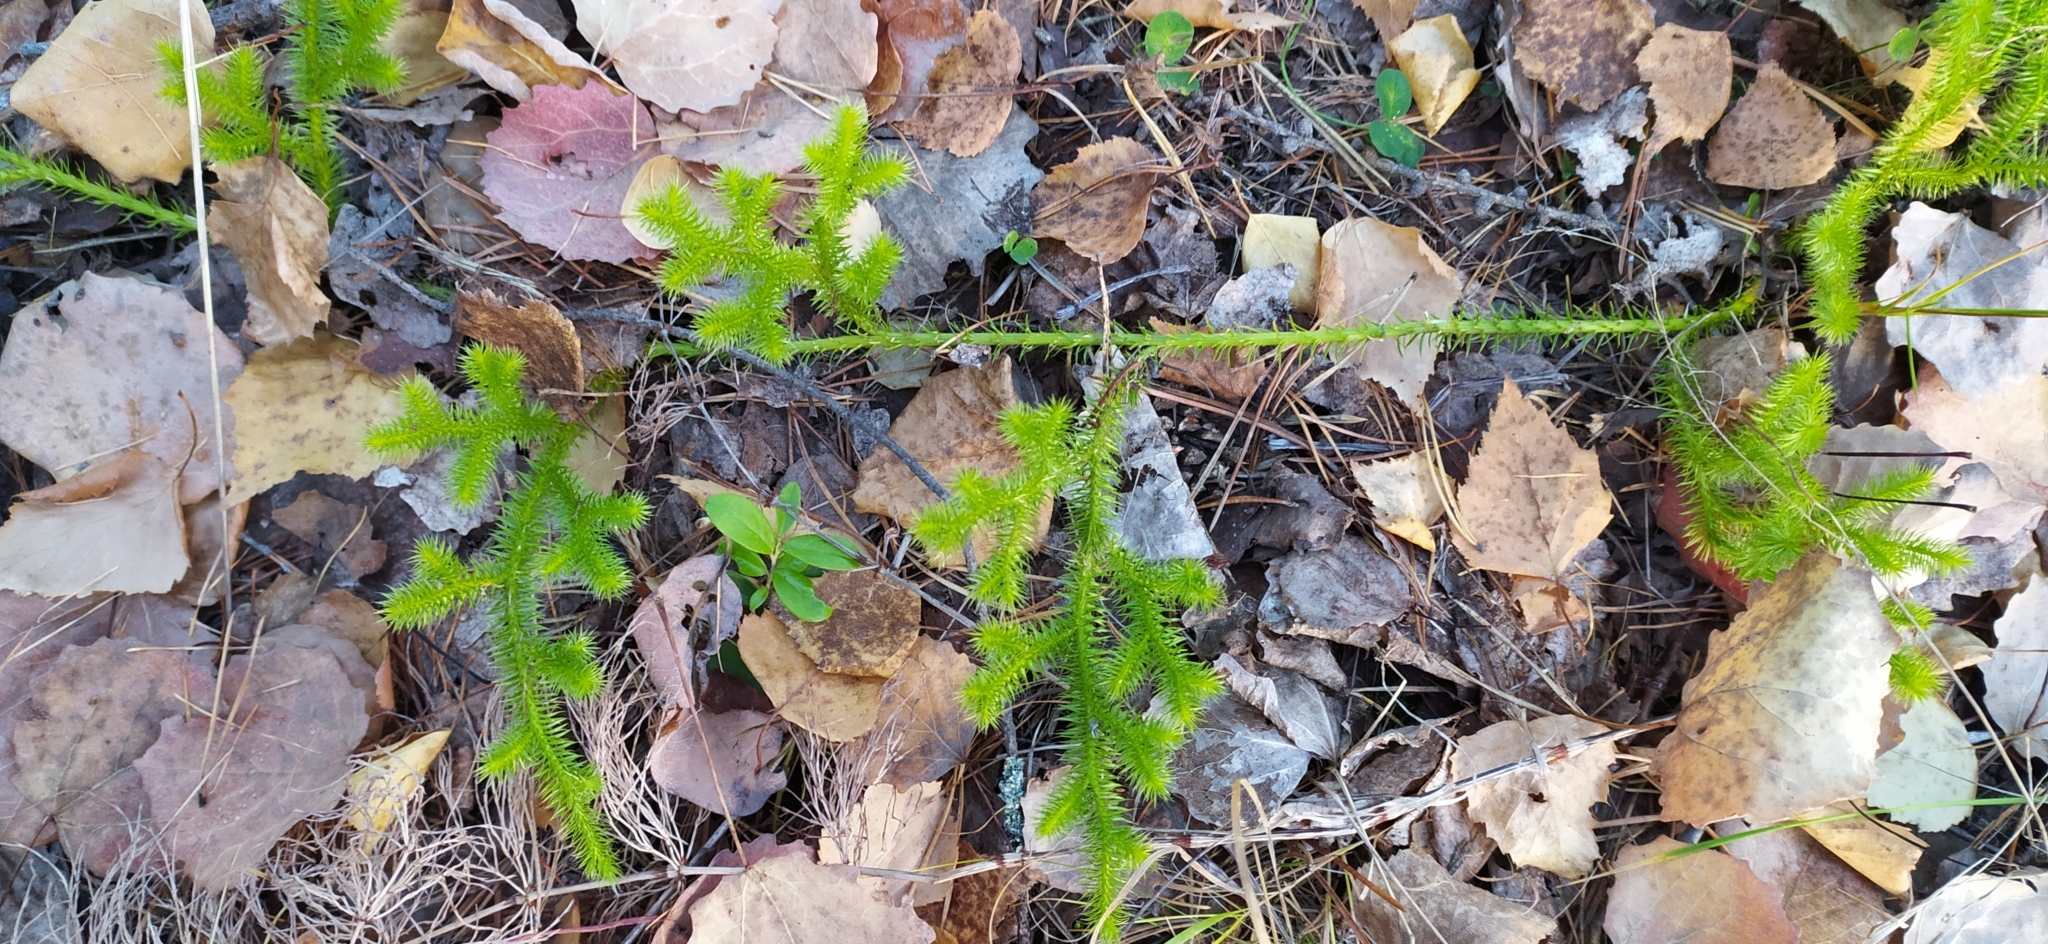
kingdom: Plantae
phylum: Tracheophyta
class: Lycopodiopsida
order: Lycopodiales
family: Lycopodiaceae
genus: Lycopodium
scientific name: Lycopodium clavatum
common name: Stag's-horn clubmoss
